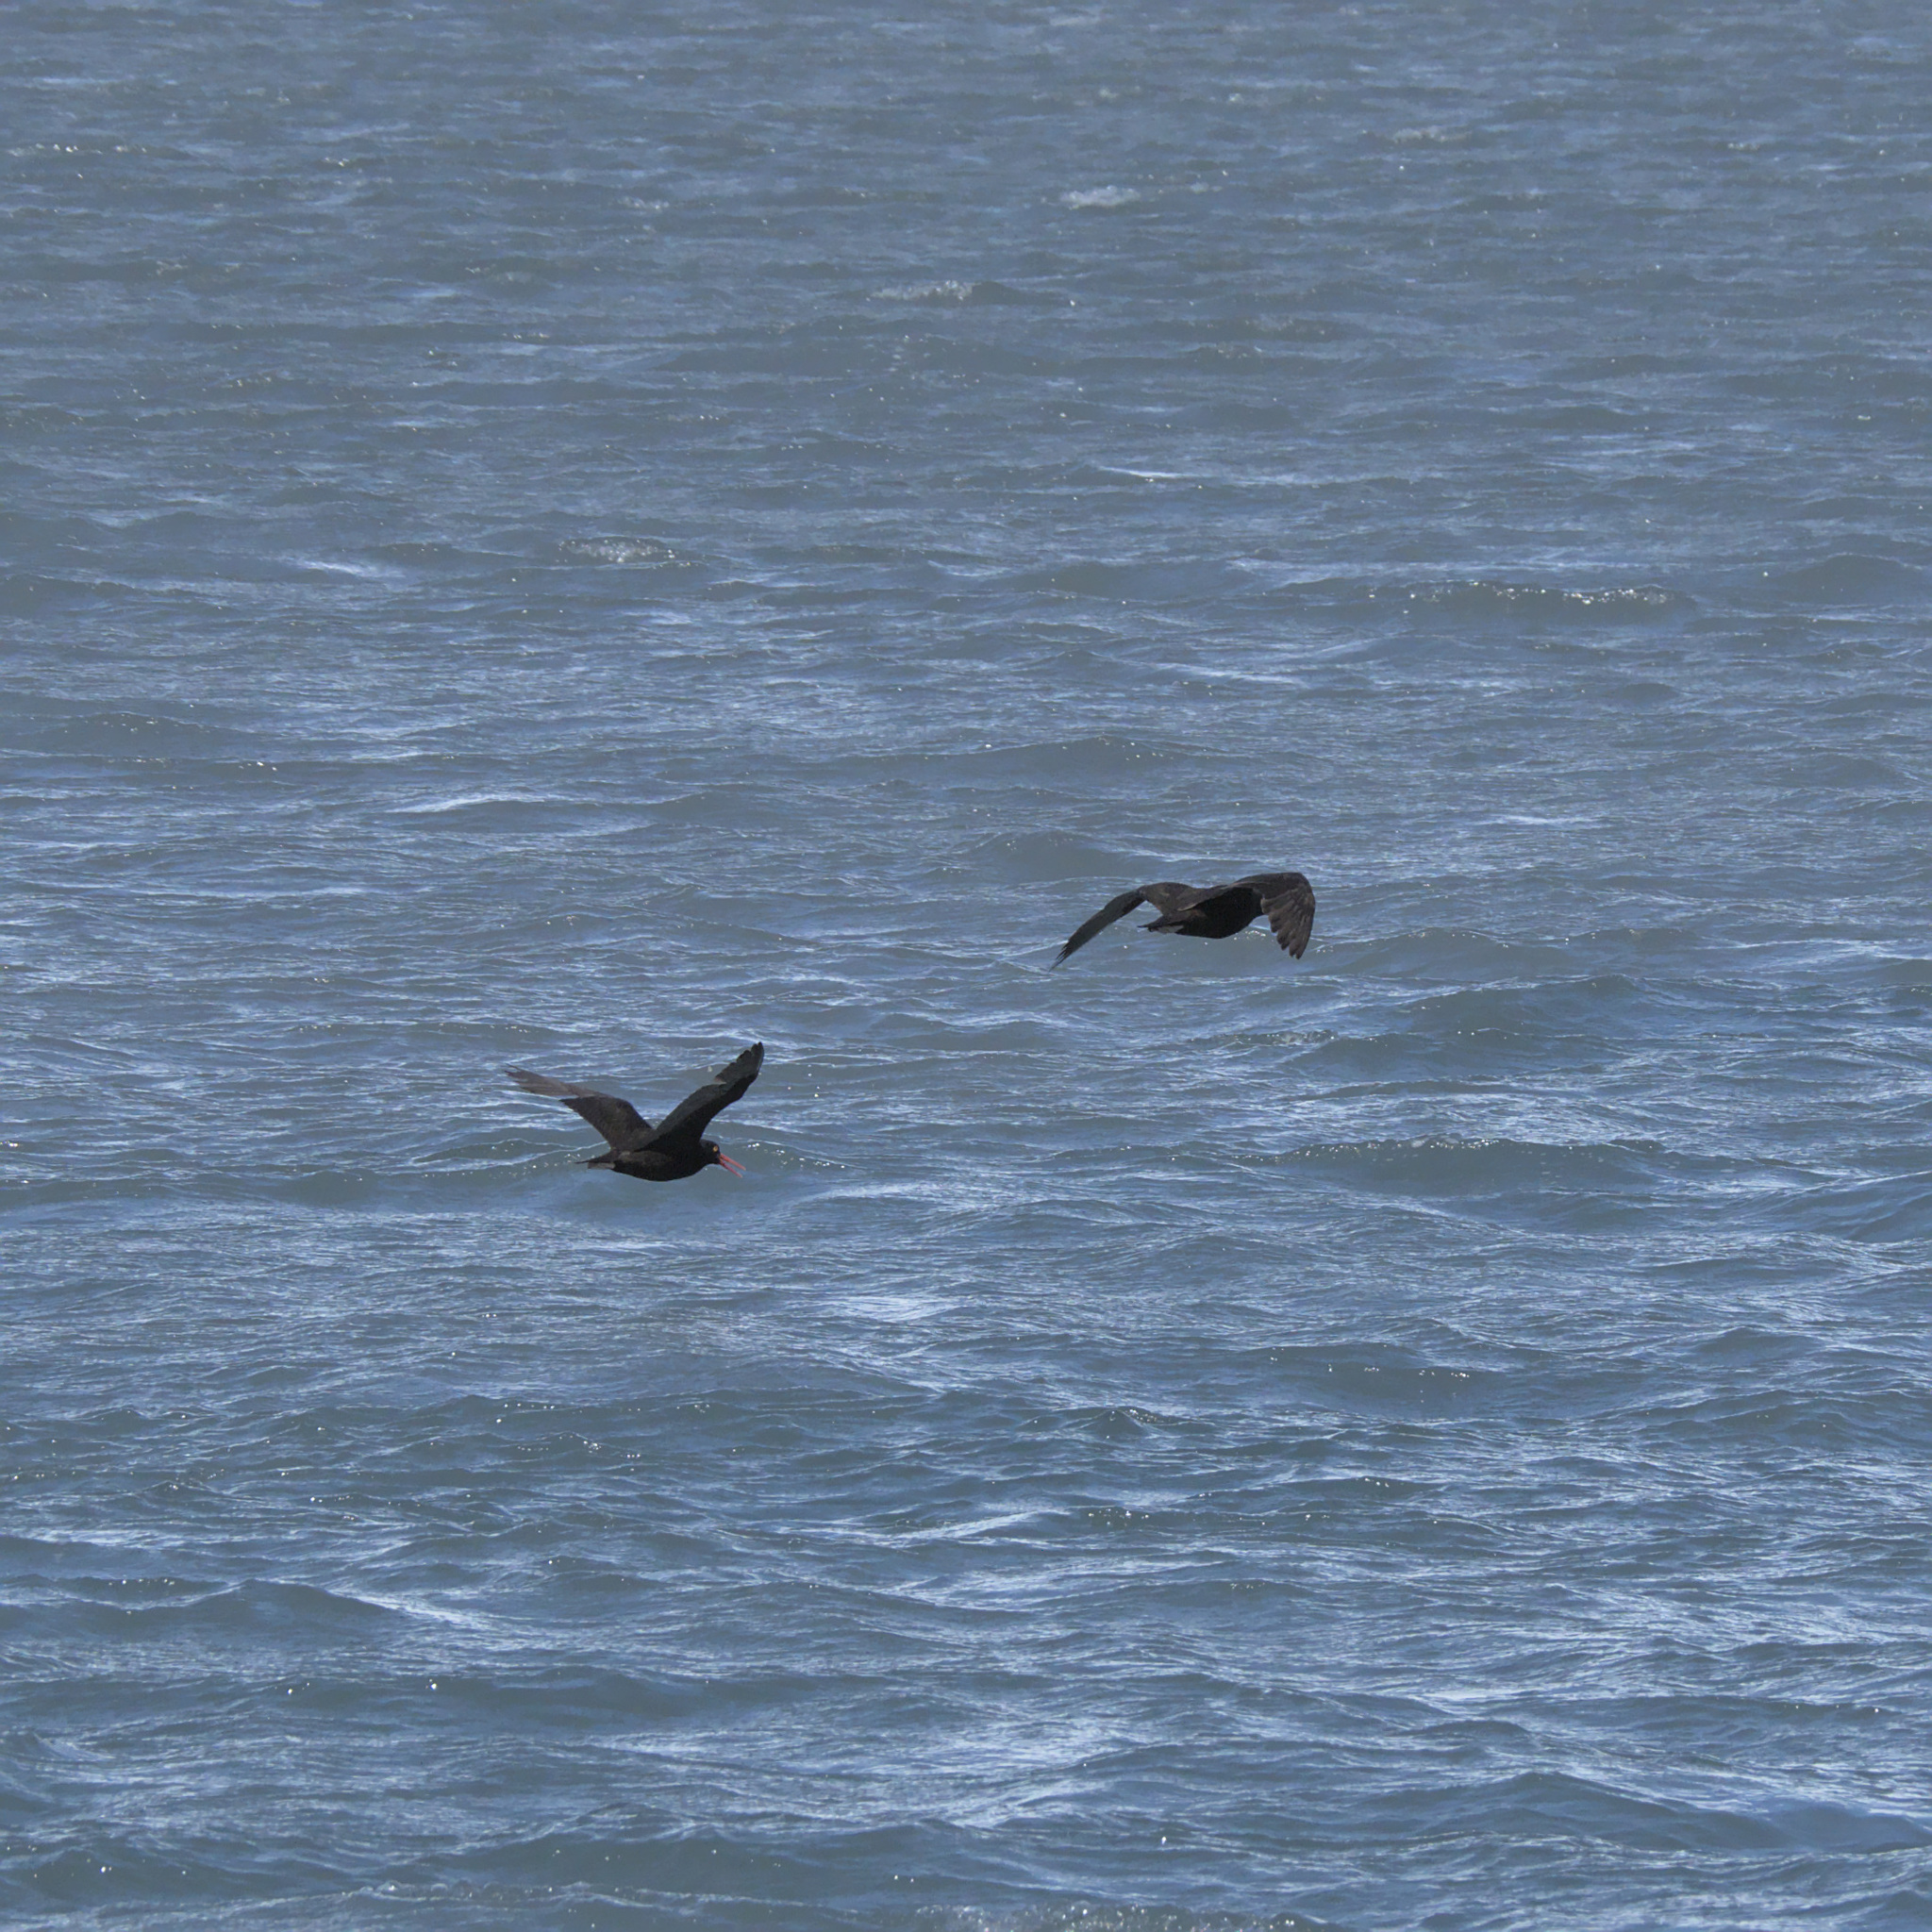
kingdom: Animalia
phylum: Chordata
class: Aves
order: Charadriiformes
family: Haematopodidae
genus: Haematopus
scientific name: Haematopus bachmani
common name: Black oystercatcher
